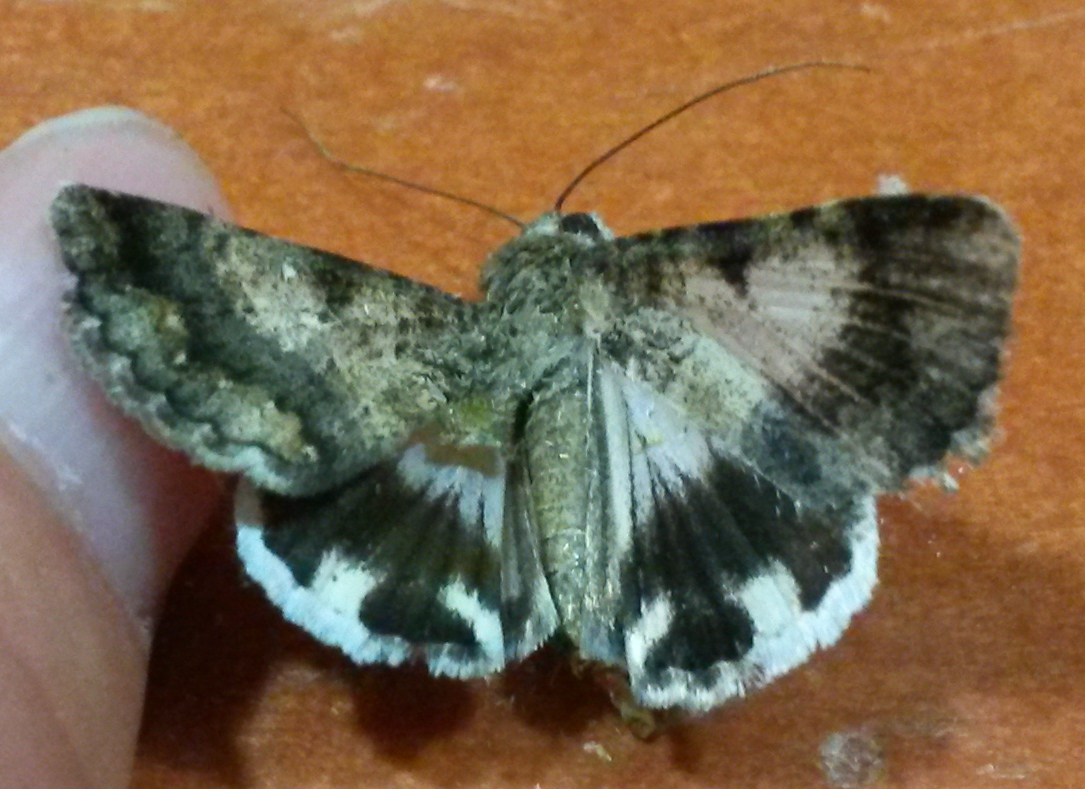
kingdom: Animalia
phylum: Arthropoda
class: Insecta
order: Lepidoptera
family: Erebidae
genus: Melipotis
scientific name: Melipotis jucunda
